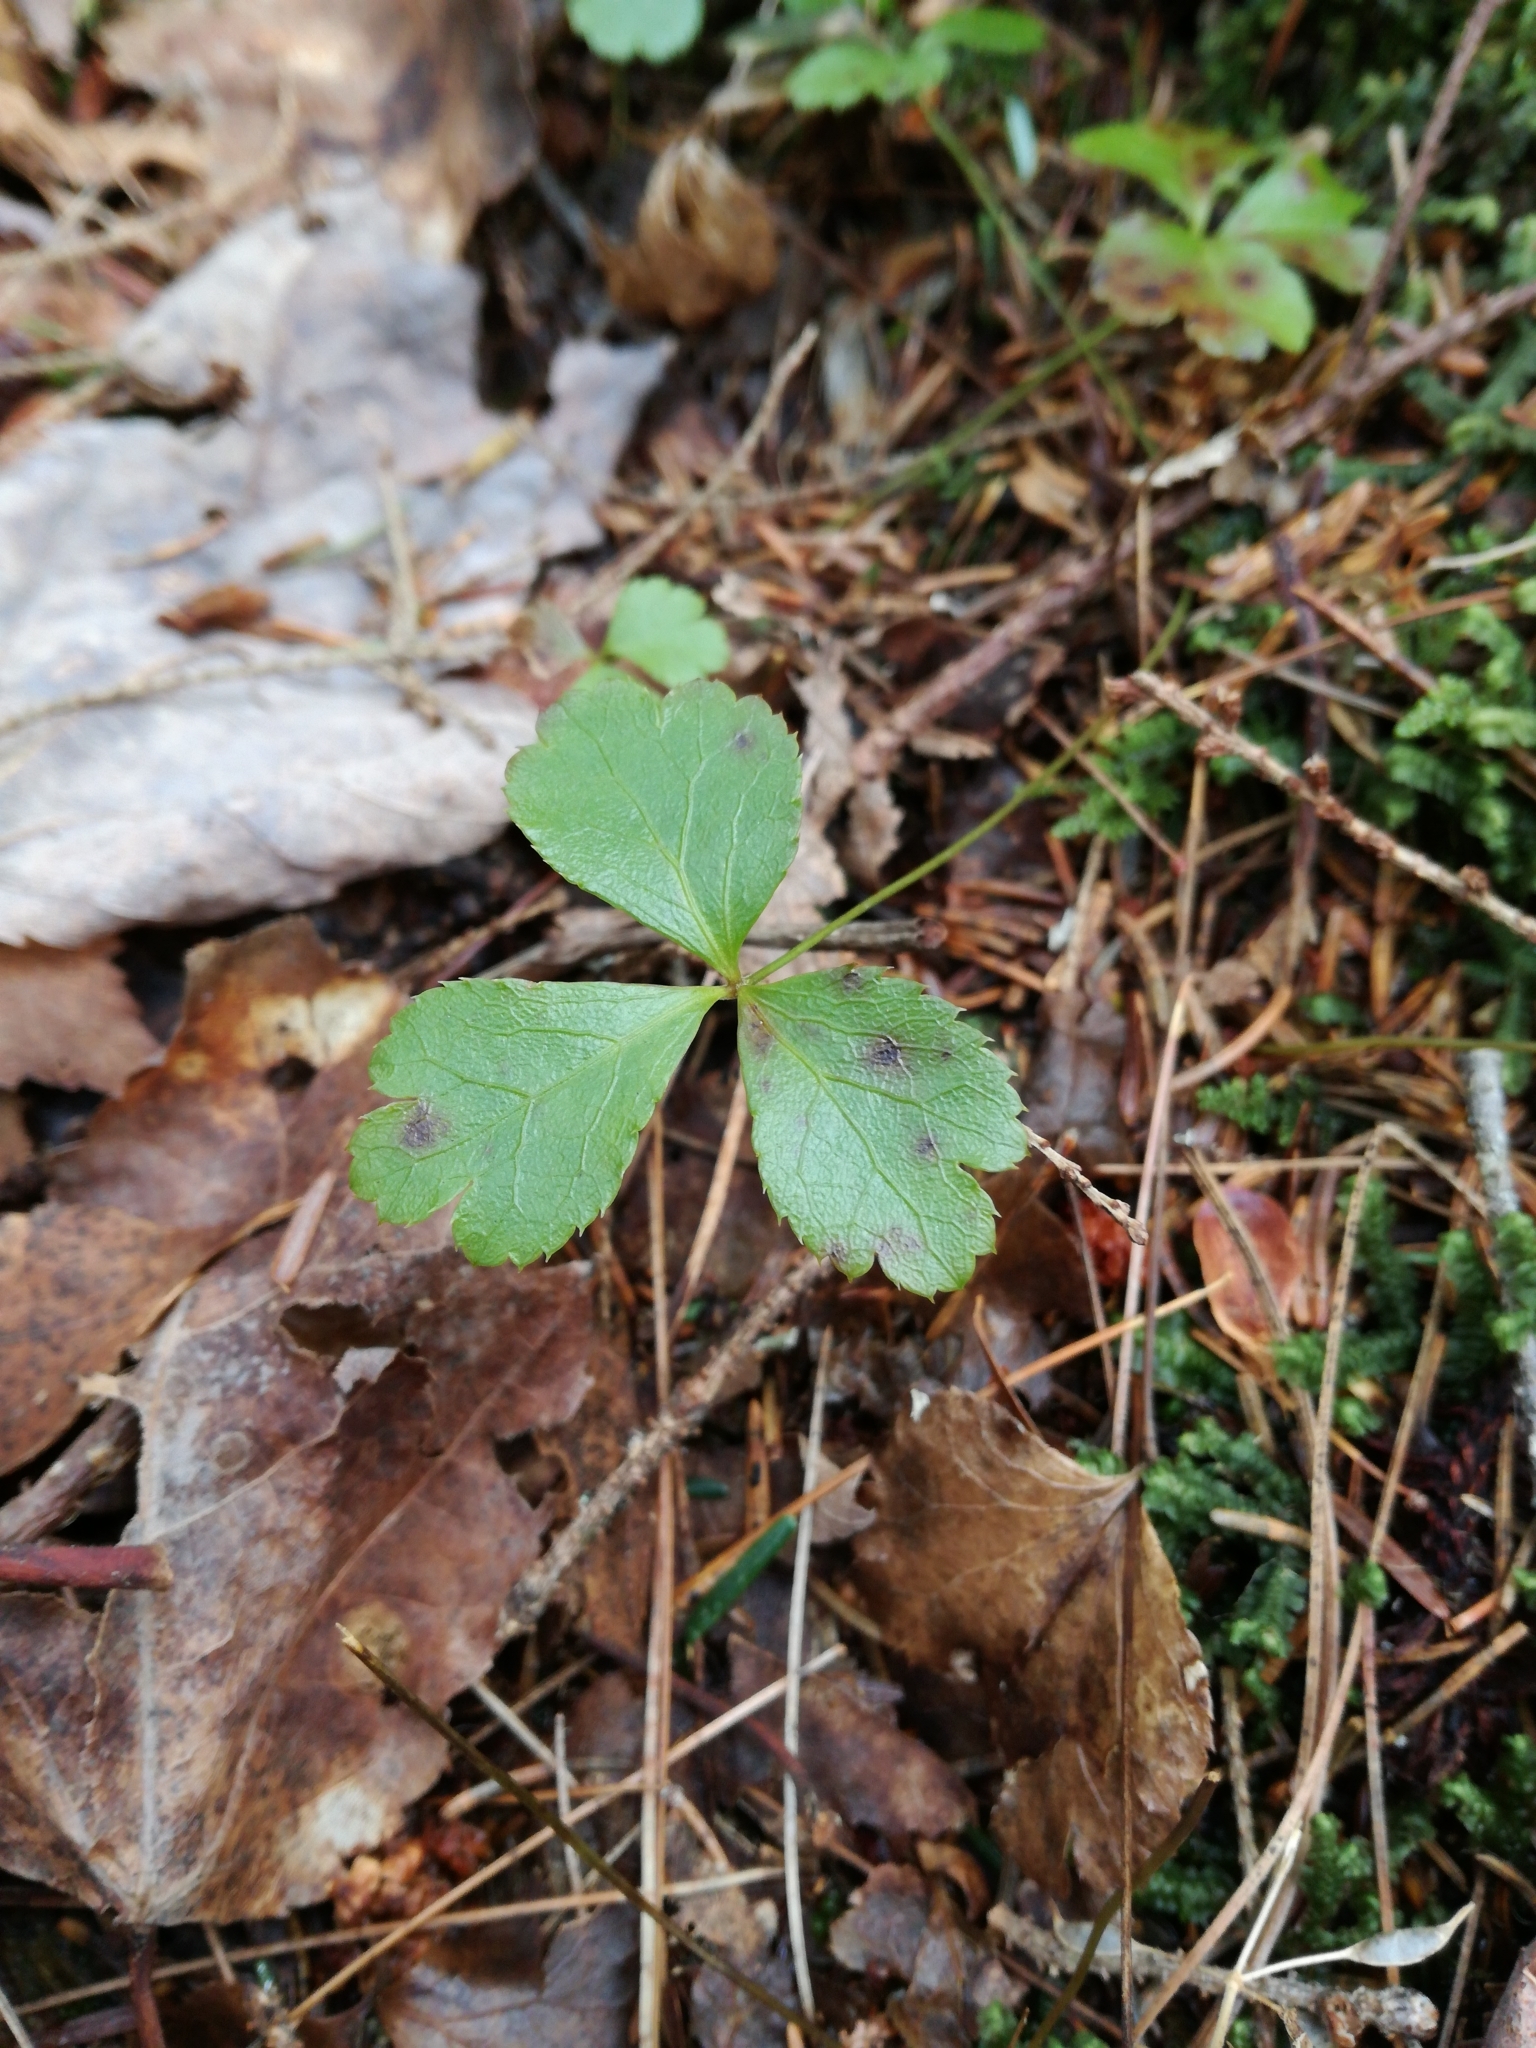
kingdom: Plantae
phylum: Tracheophyta
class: Magnoliopsida
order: Ranunculales
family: Ranunculaceae
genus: Coptis
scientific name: Coptis trifolia
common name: Canker-root
